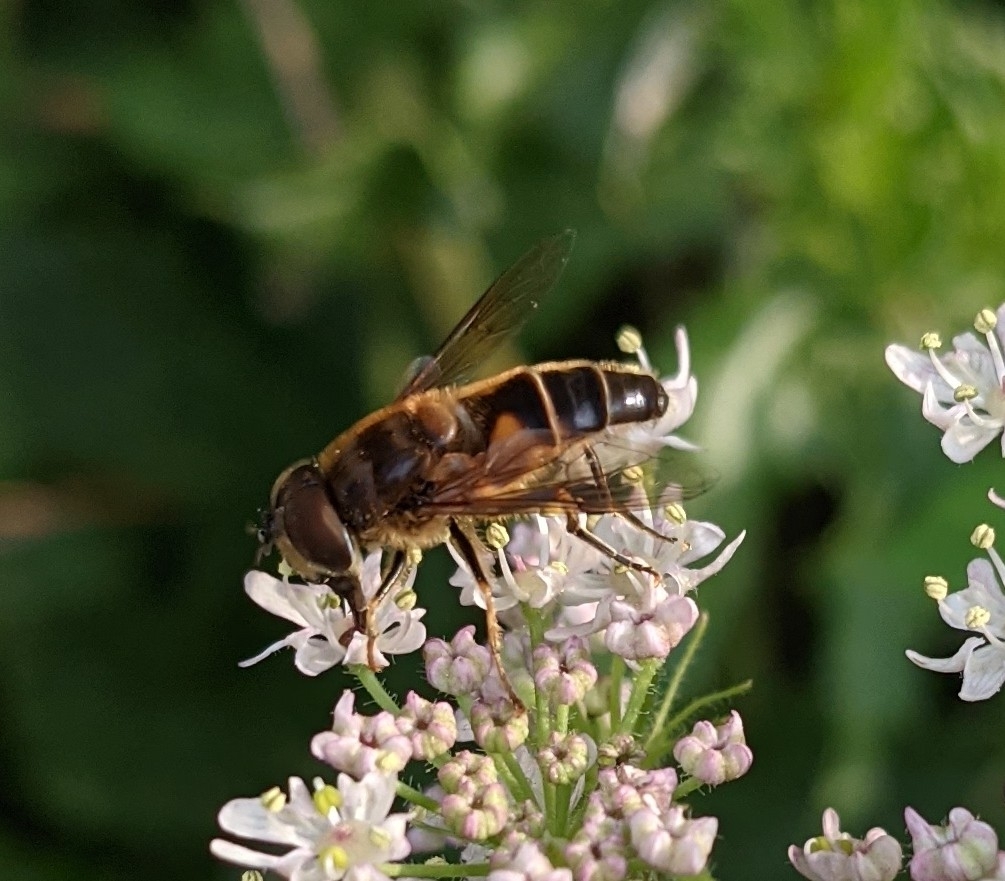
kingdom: Animalia
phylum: Arthropoda
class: Insecta
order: Diptera
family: Syrphidae
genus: Eristalis
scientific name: Eristalis pertinax
